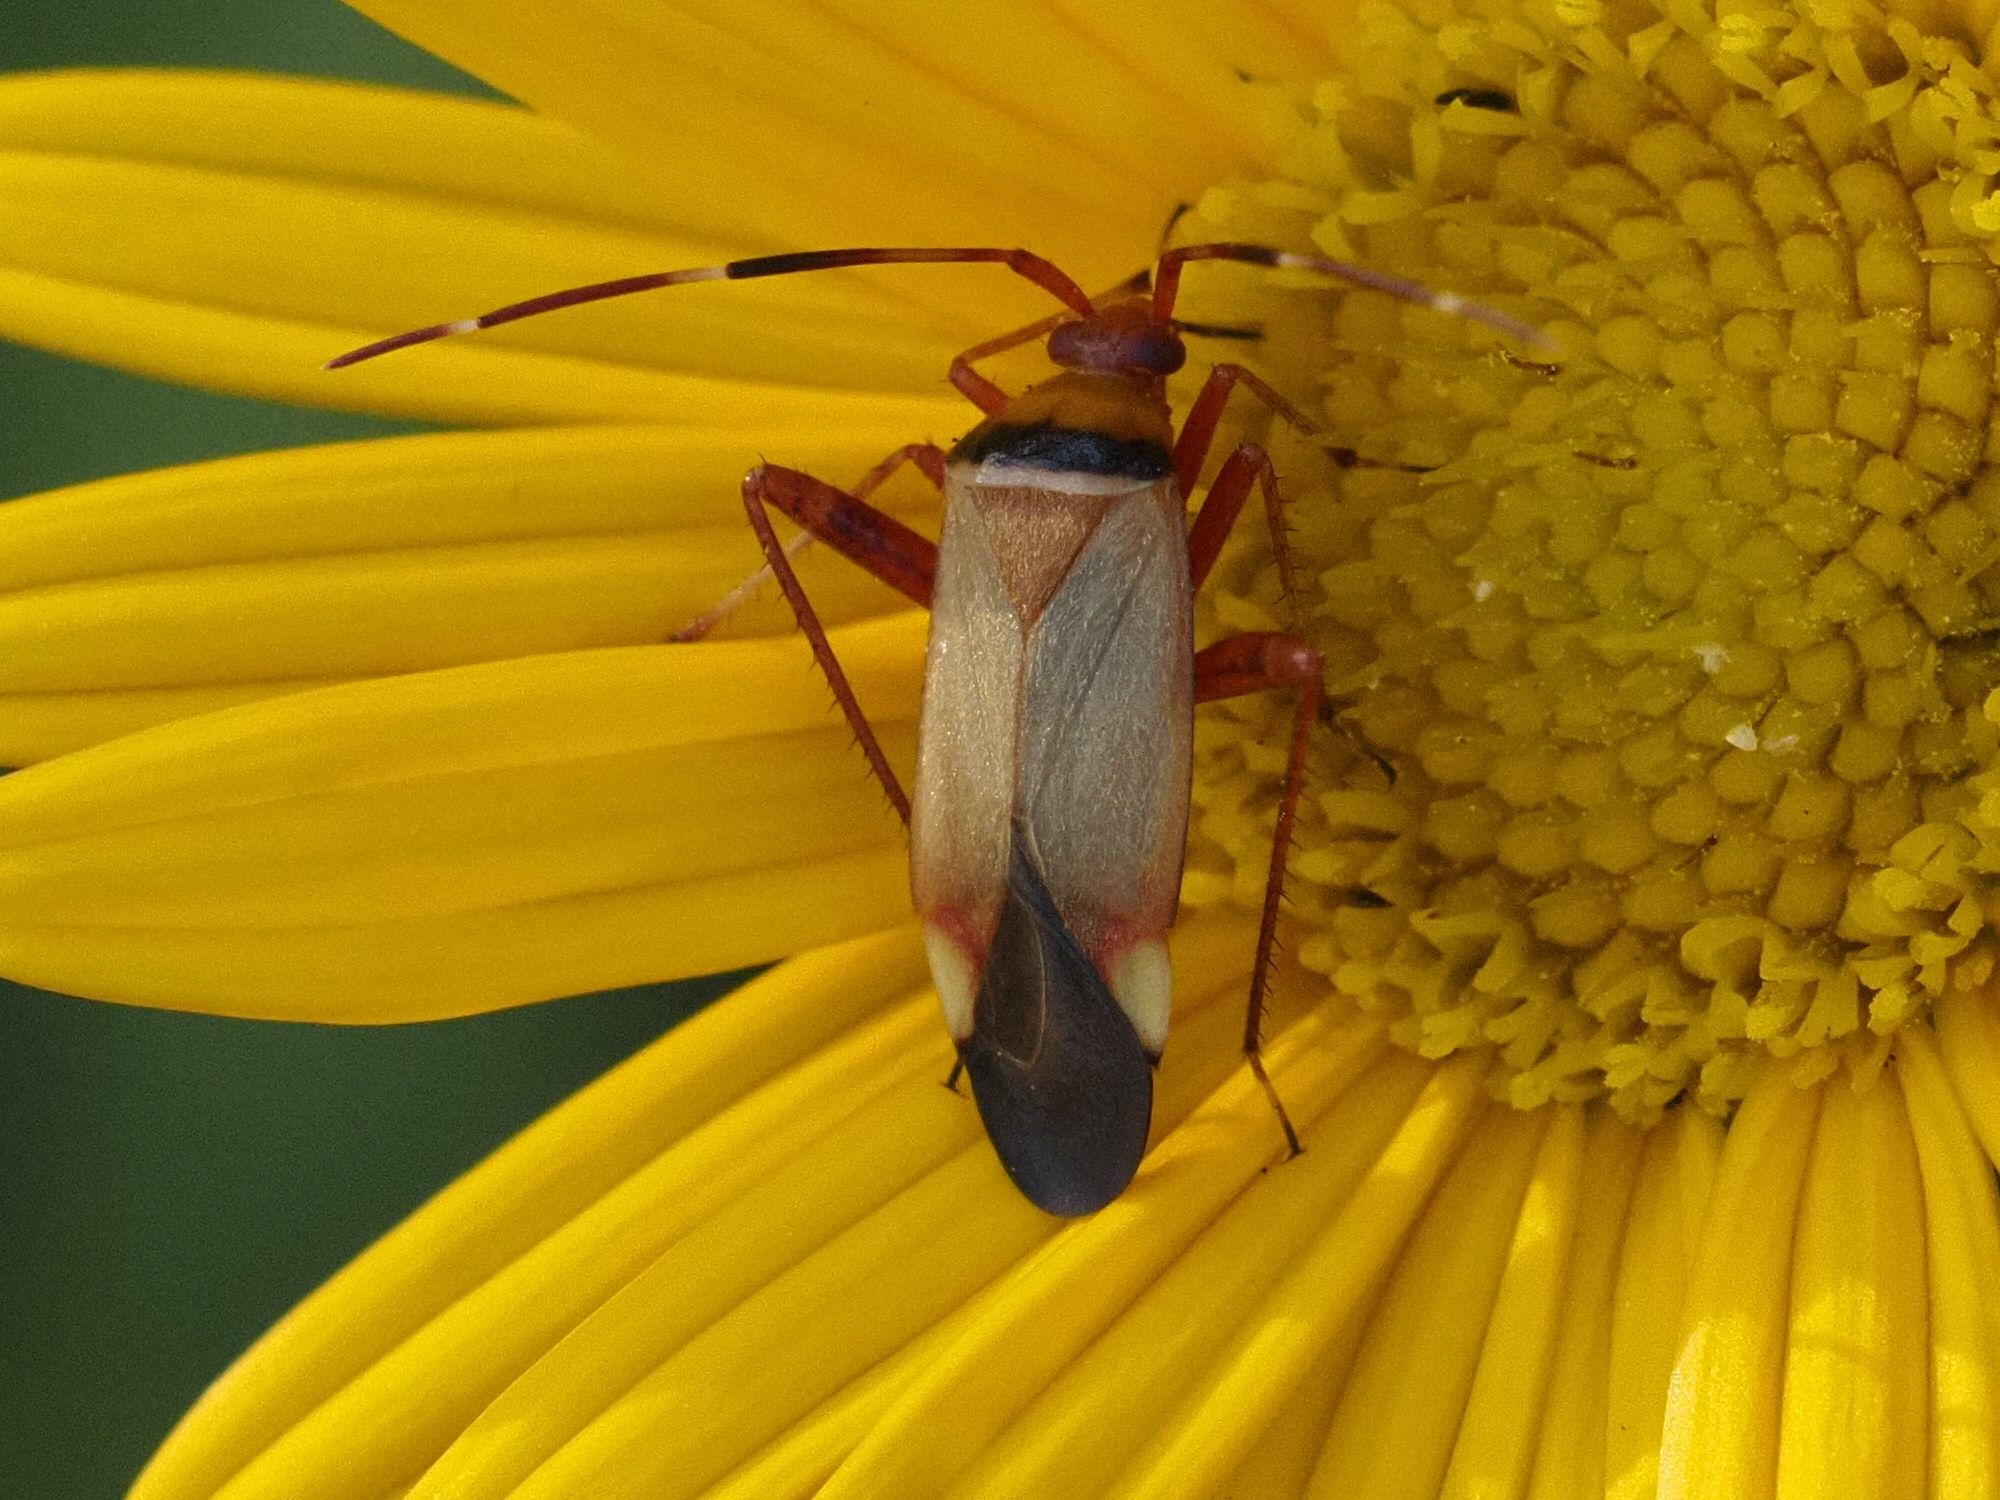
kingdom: Animalia
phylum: Arthropoda
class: Insecta
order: Hemiptera
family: Miridae
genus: Adelphocoris
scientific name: Adelphocoris vandalicus
